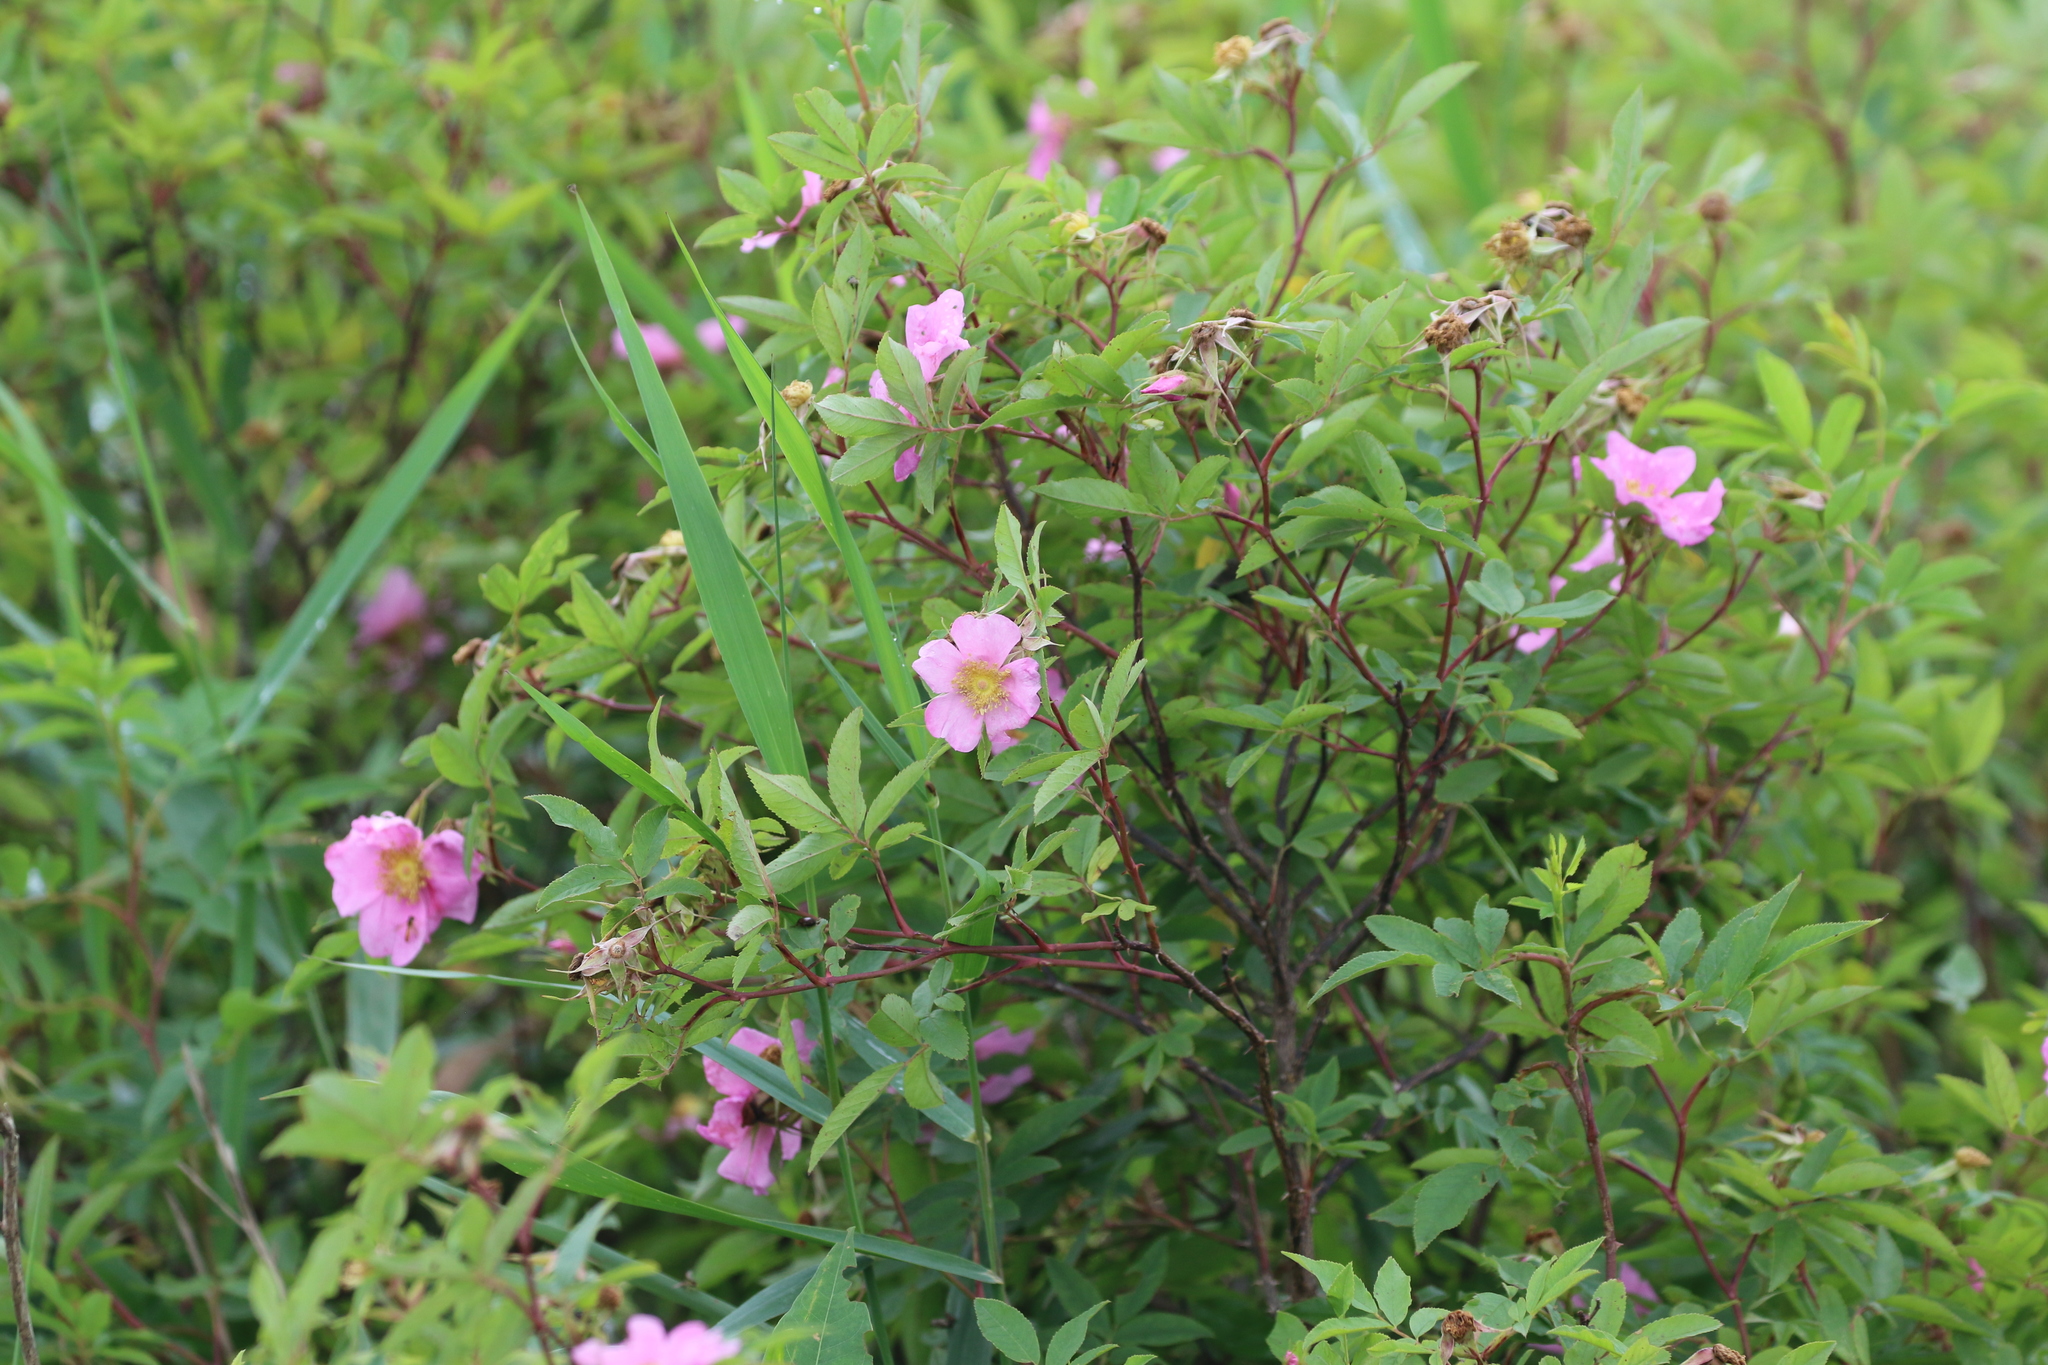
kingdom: Plantae
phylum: Tracheophyta
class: Magnoliopsida
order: Rosales
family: Rosaceae
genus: Rosa
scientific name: Rosa palustris
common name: Swamp rose
